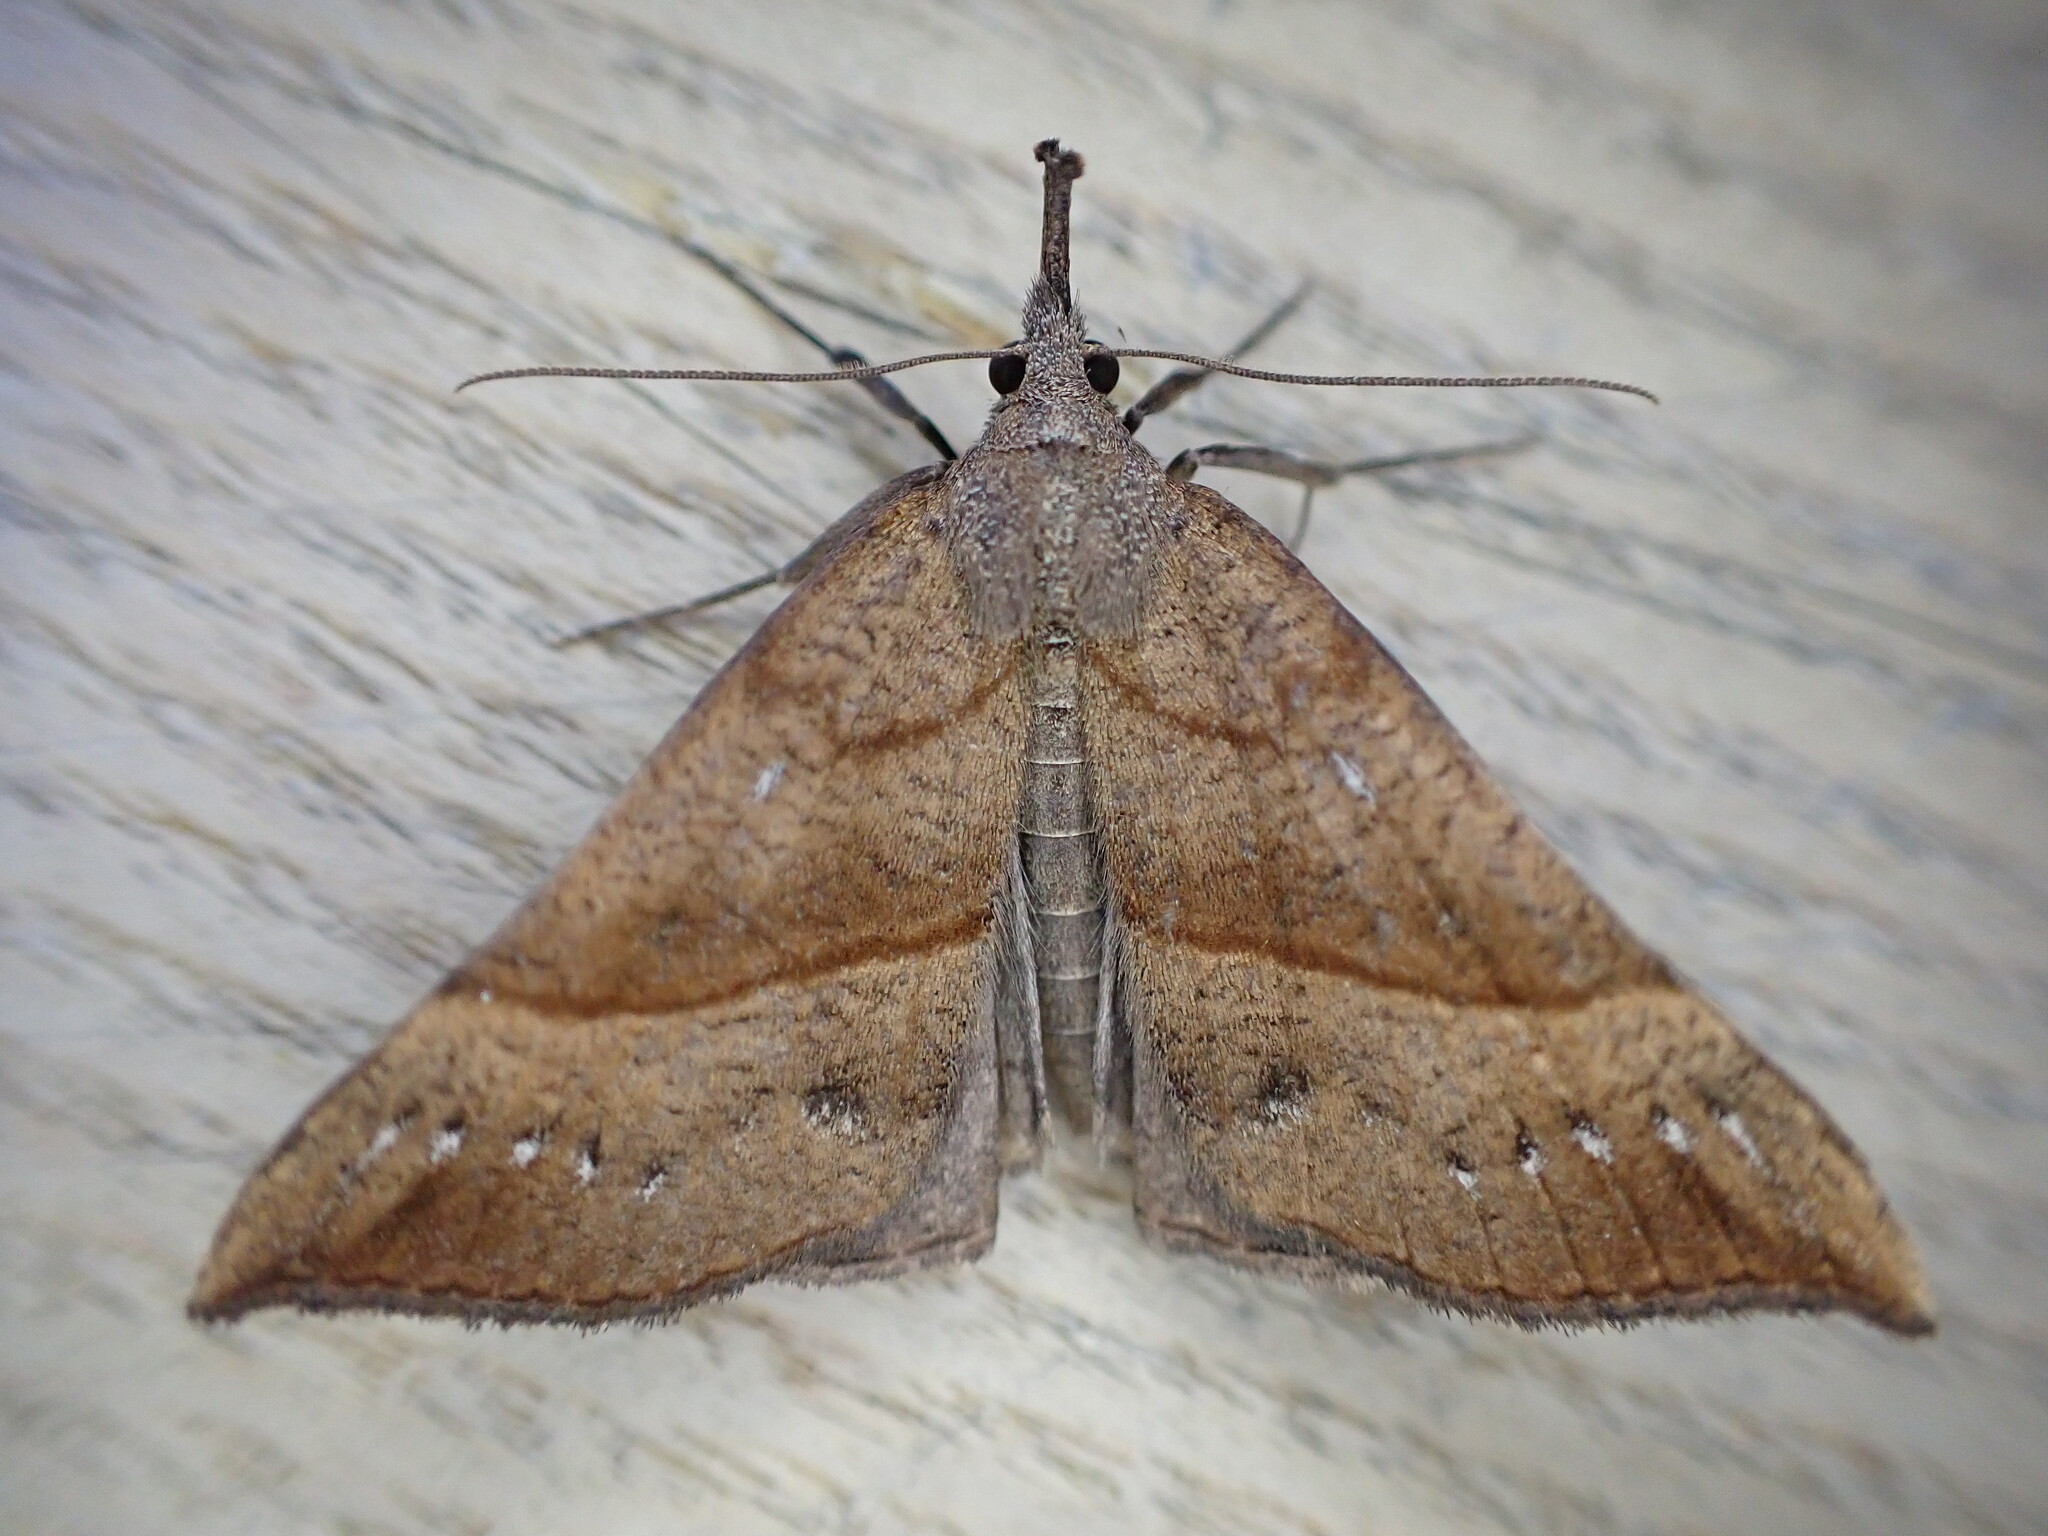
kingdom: Animalia
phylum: Arthropoda
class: Insecta
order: Lepidoptera
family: Erebidae
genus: Hypena
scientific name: Hypena proboscidalis
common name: Snout
